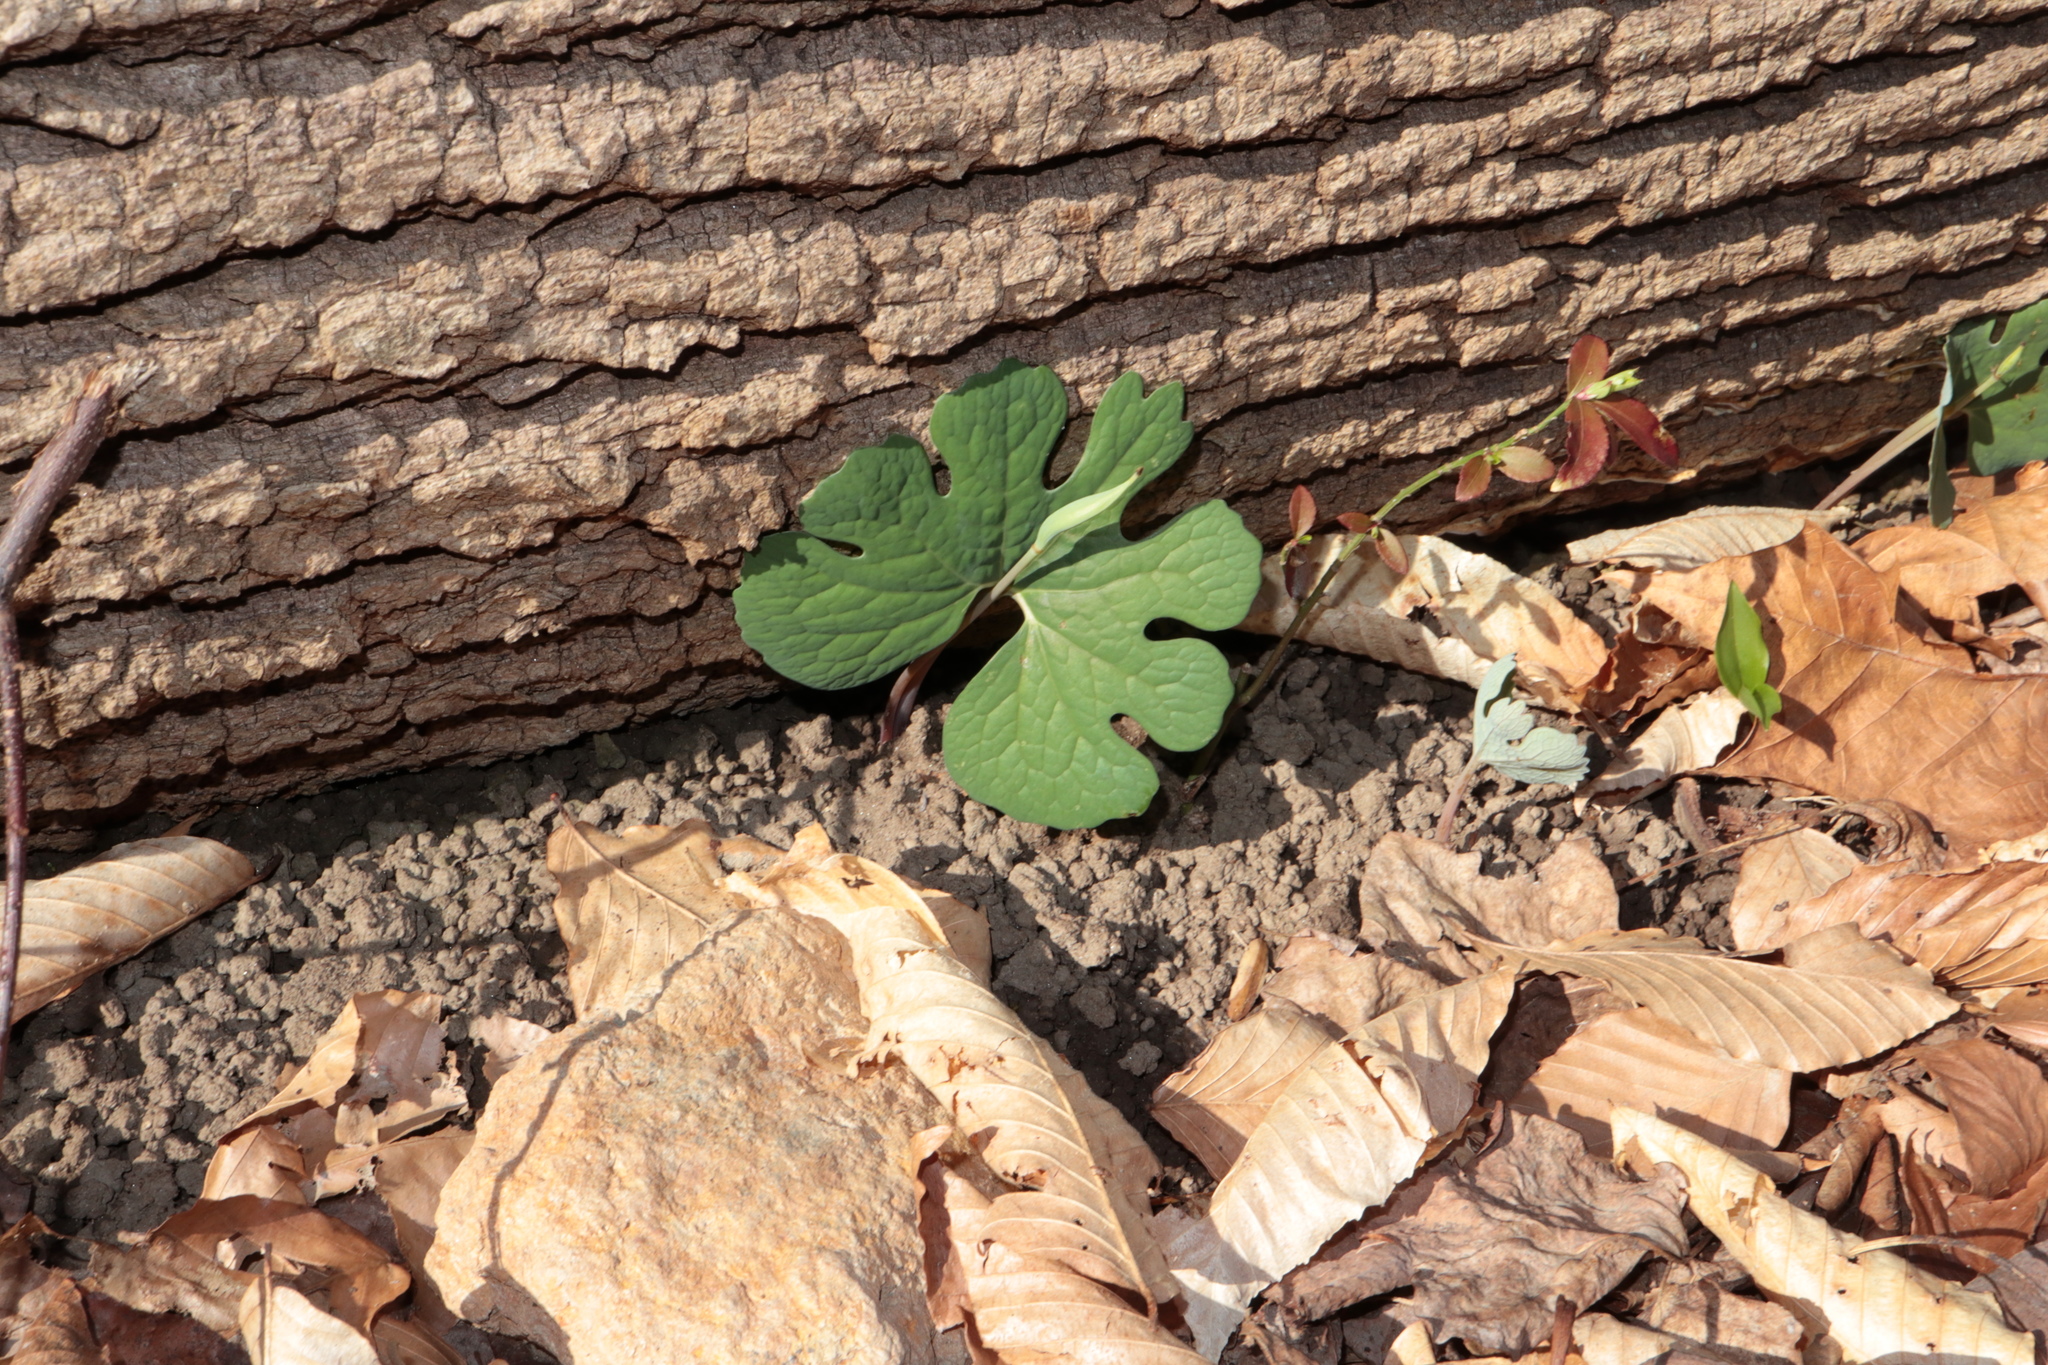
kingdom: Plantae
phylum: Tracheophyta
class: Magnoliopsida
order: Ranunculales
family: Papaveraceae
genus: Sanguinaria
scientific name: Sanguinaria canadensis
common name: Bloodroot
